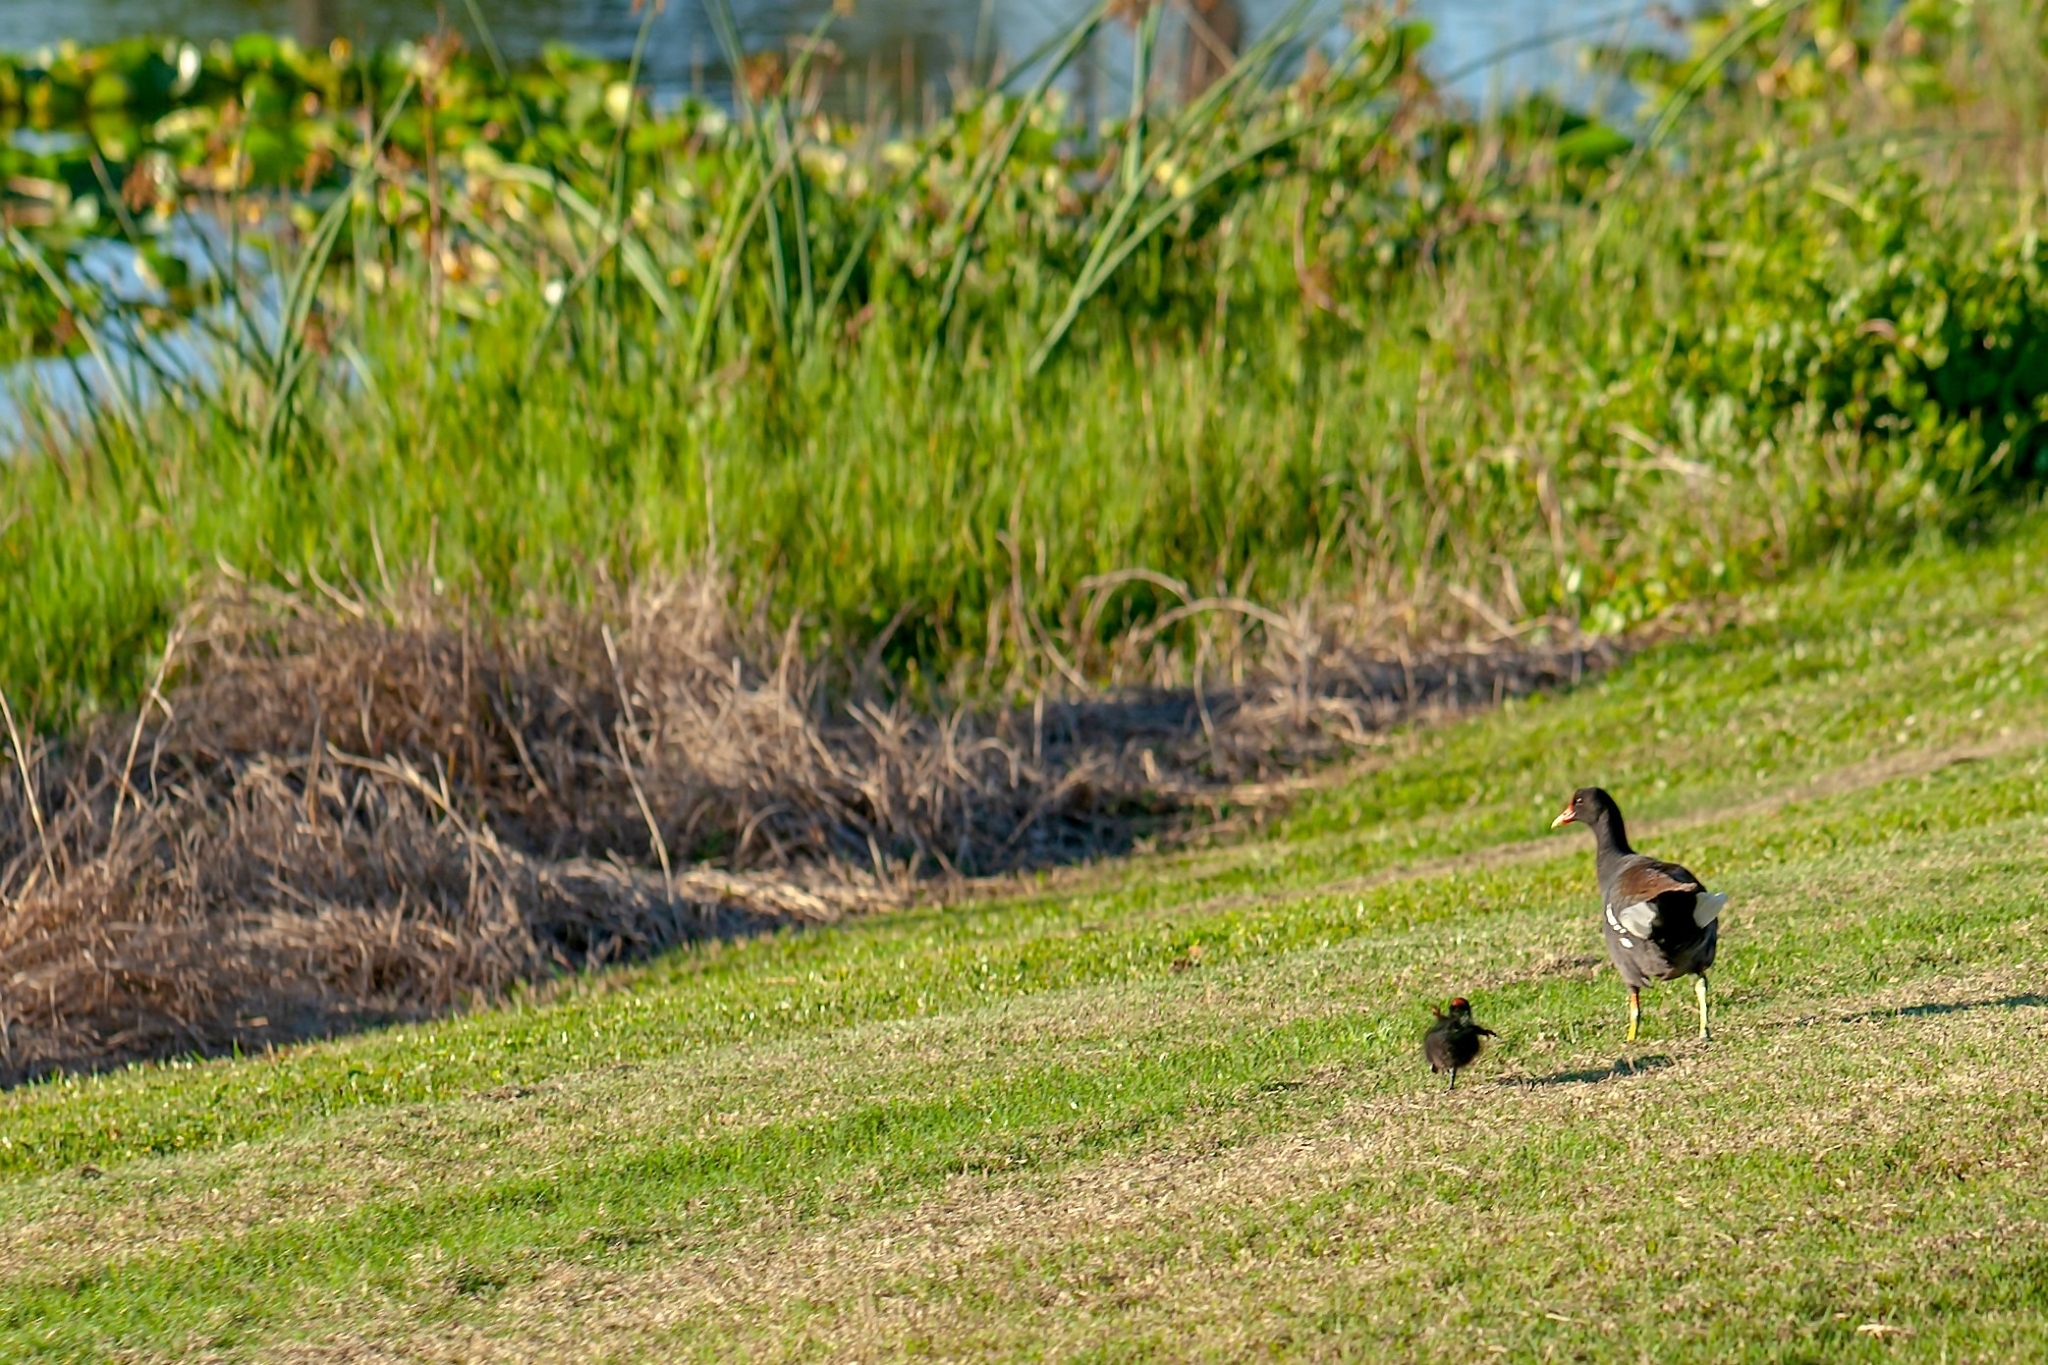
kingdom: Animalia
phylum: Chordata
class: Aves
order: Gruiformes
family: Rallidae
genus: Gallinula
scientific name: Gallinula chloropus
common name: Common moorhen
